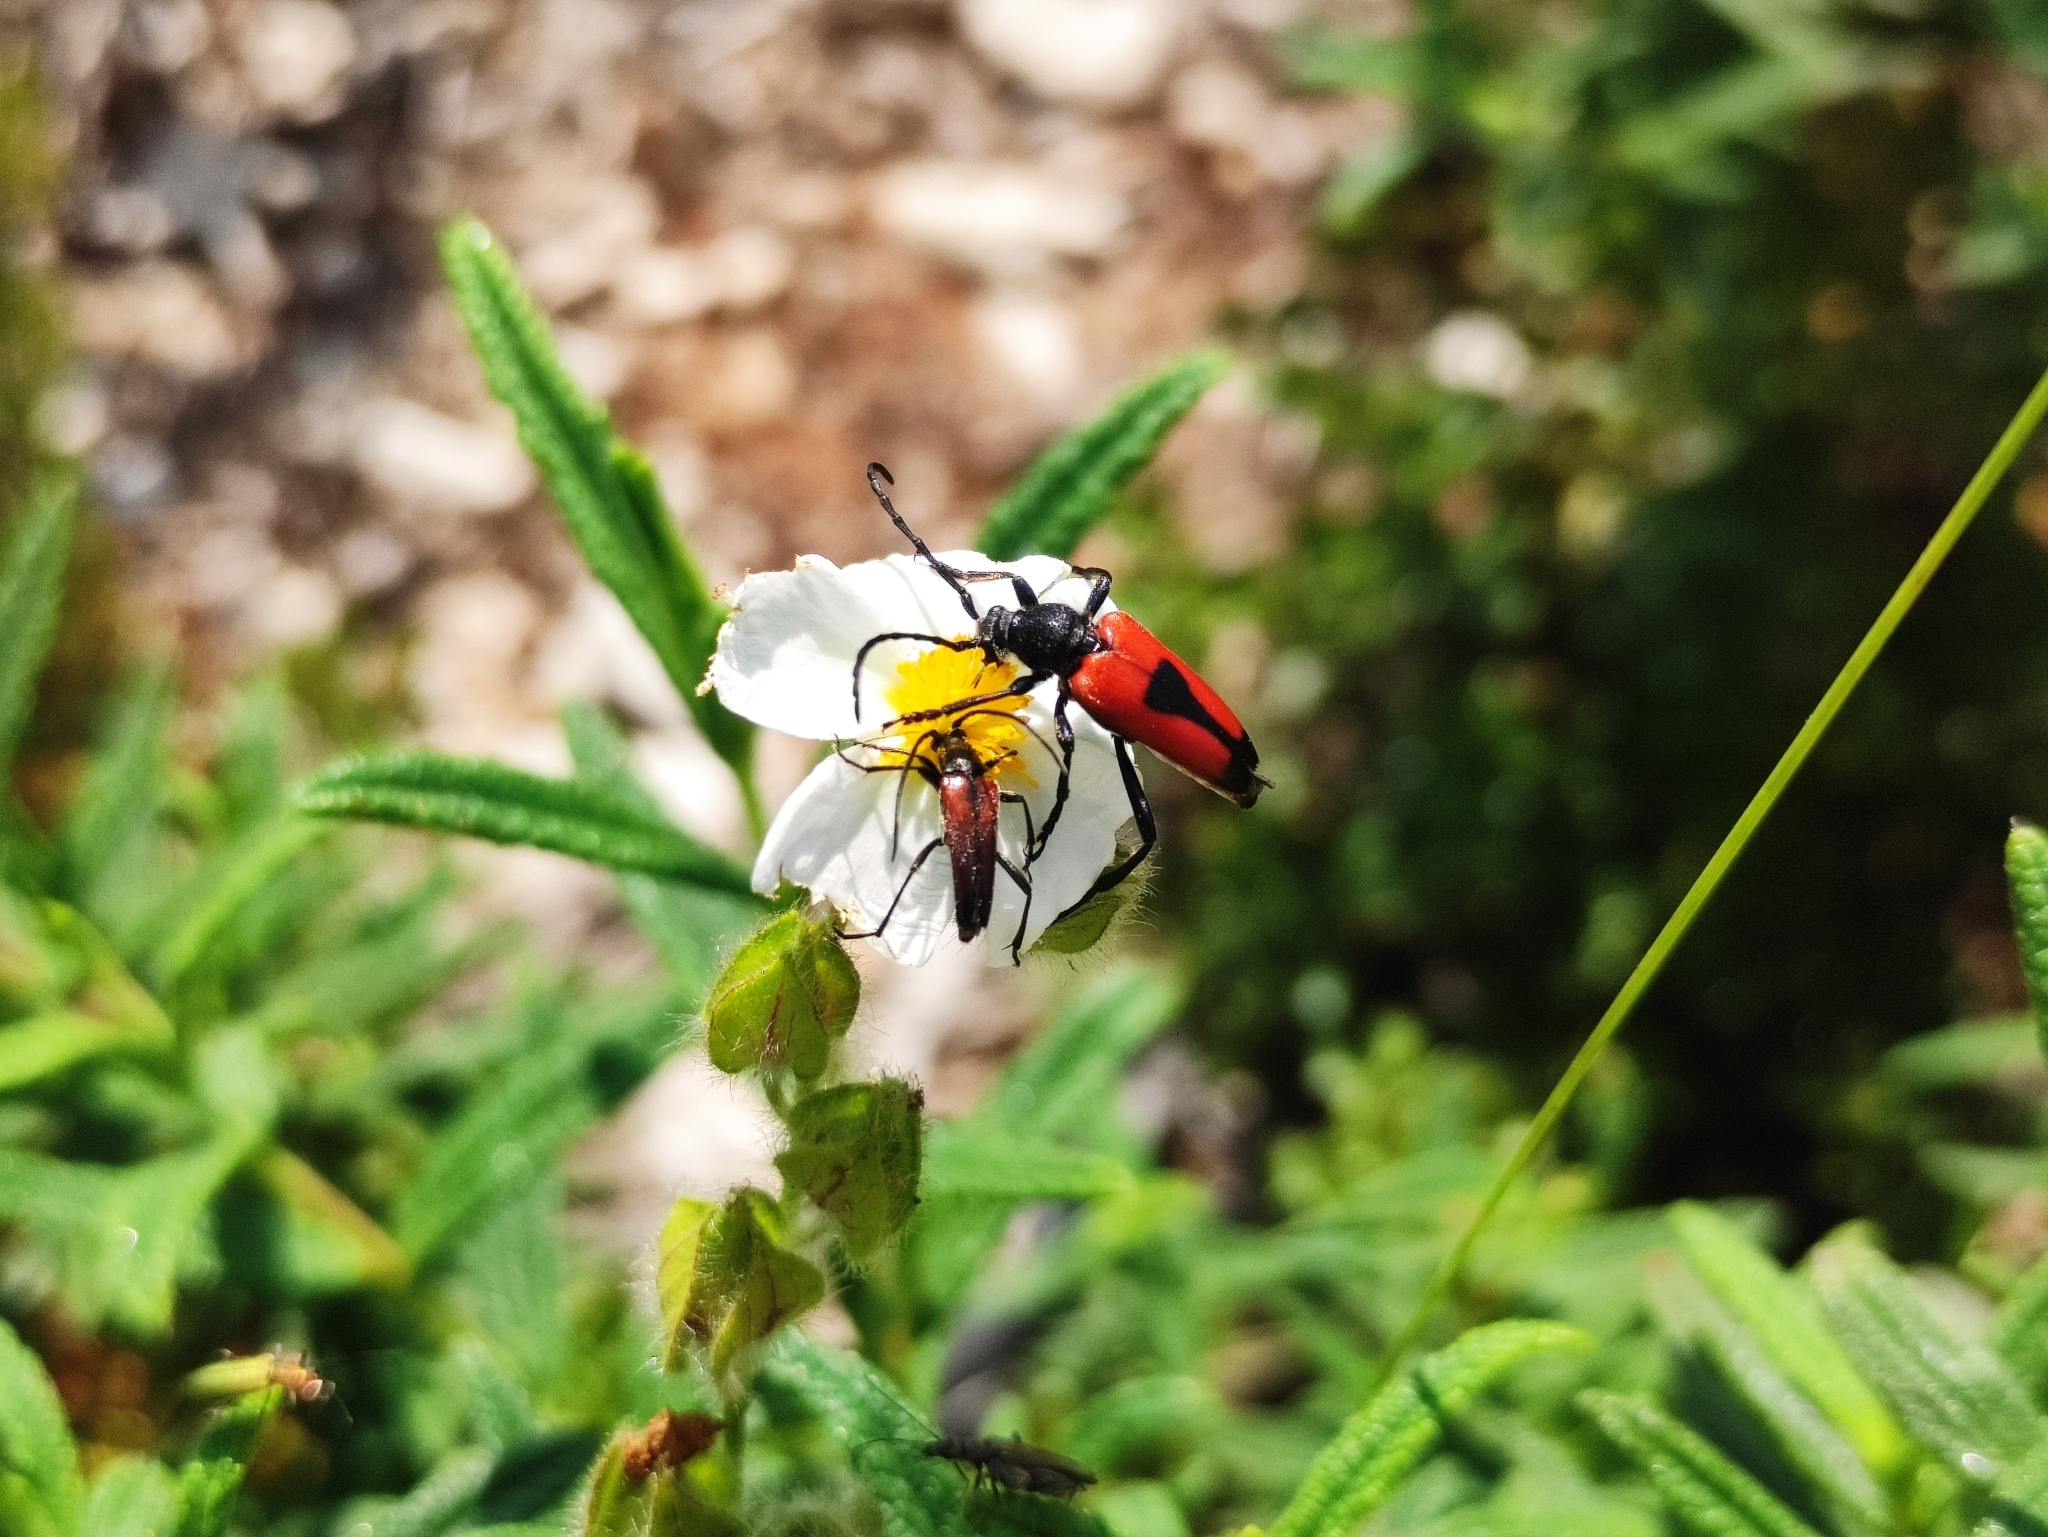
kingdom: Animalia
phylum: Arthropoda
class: Insecta
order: Coleoptera
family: Cerambycidae
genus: Stictoleptura
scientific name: Stictoleptura cordigera
